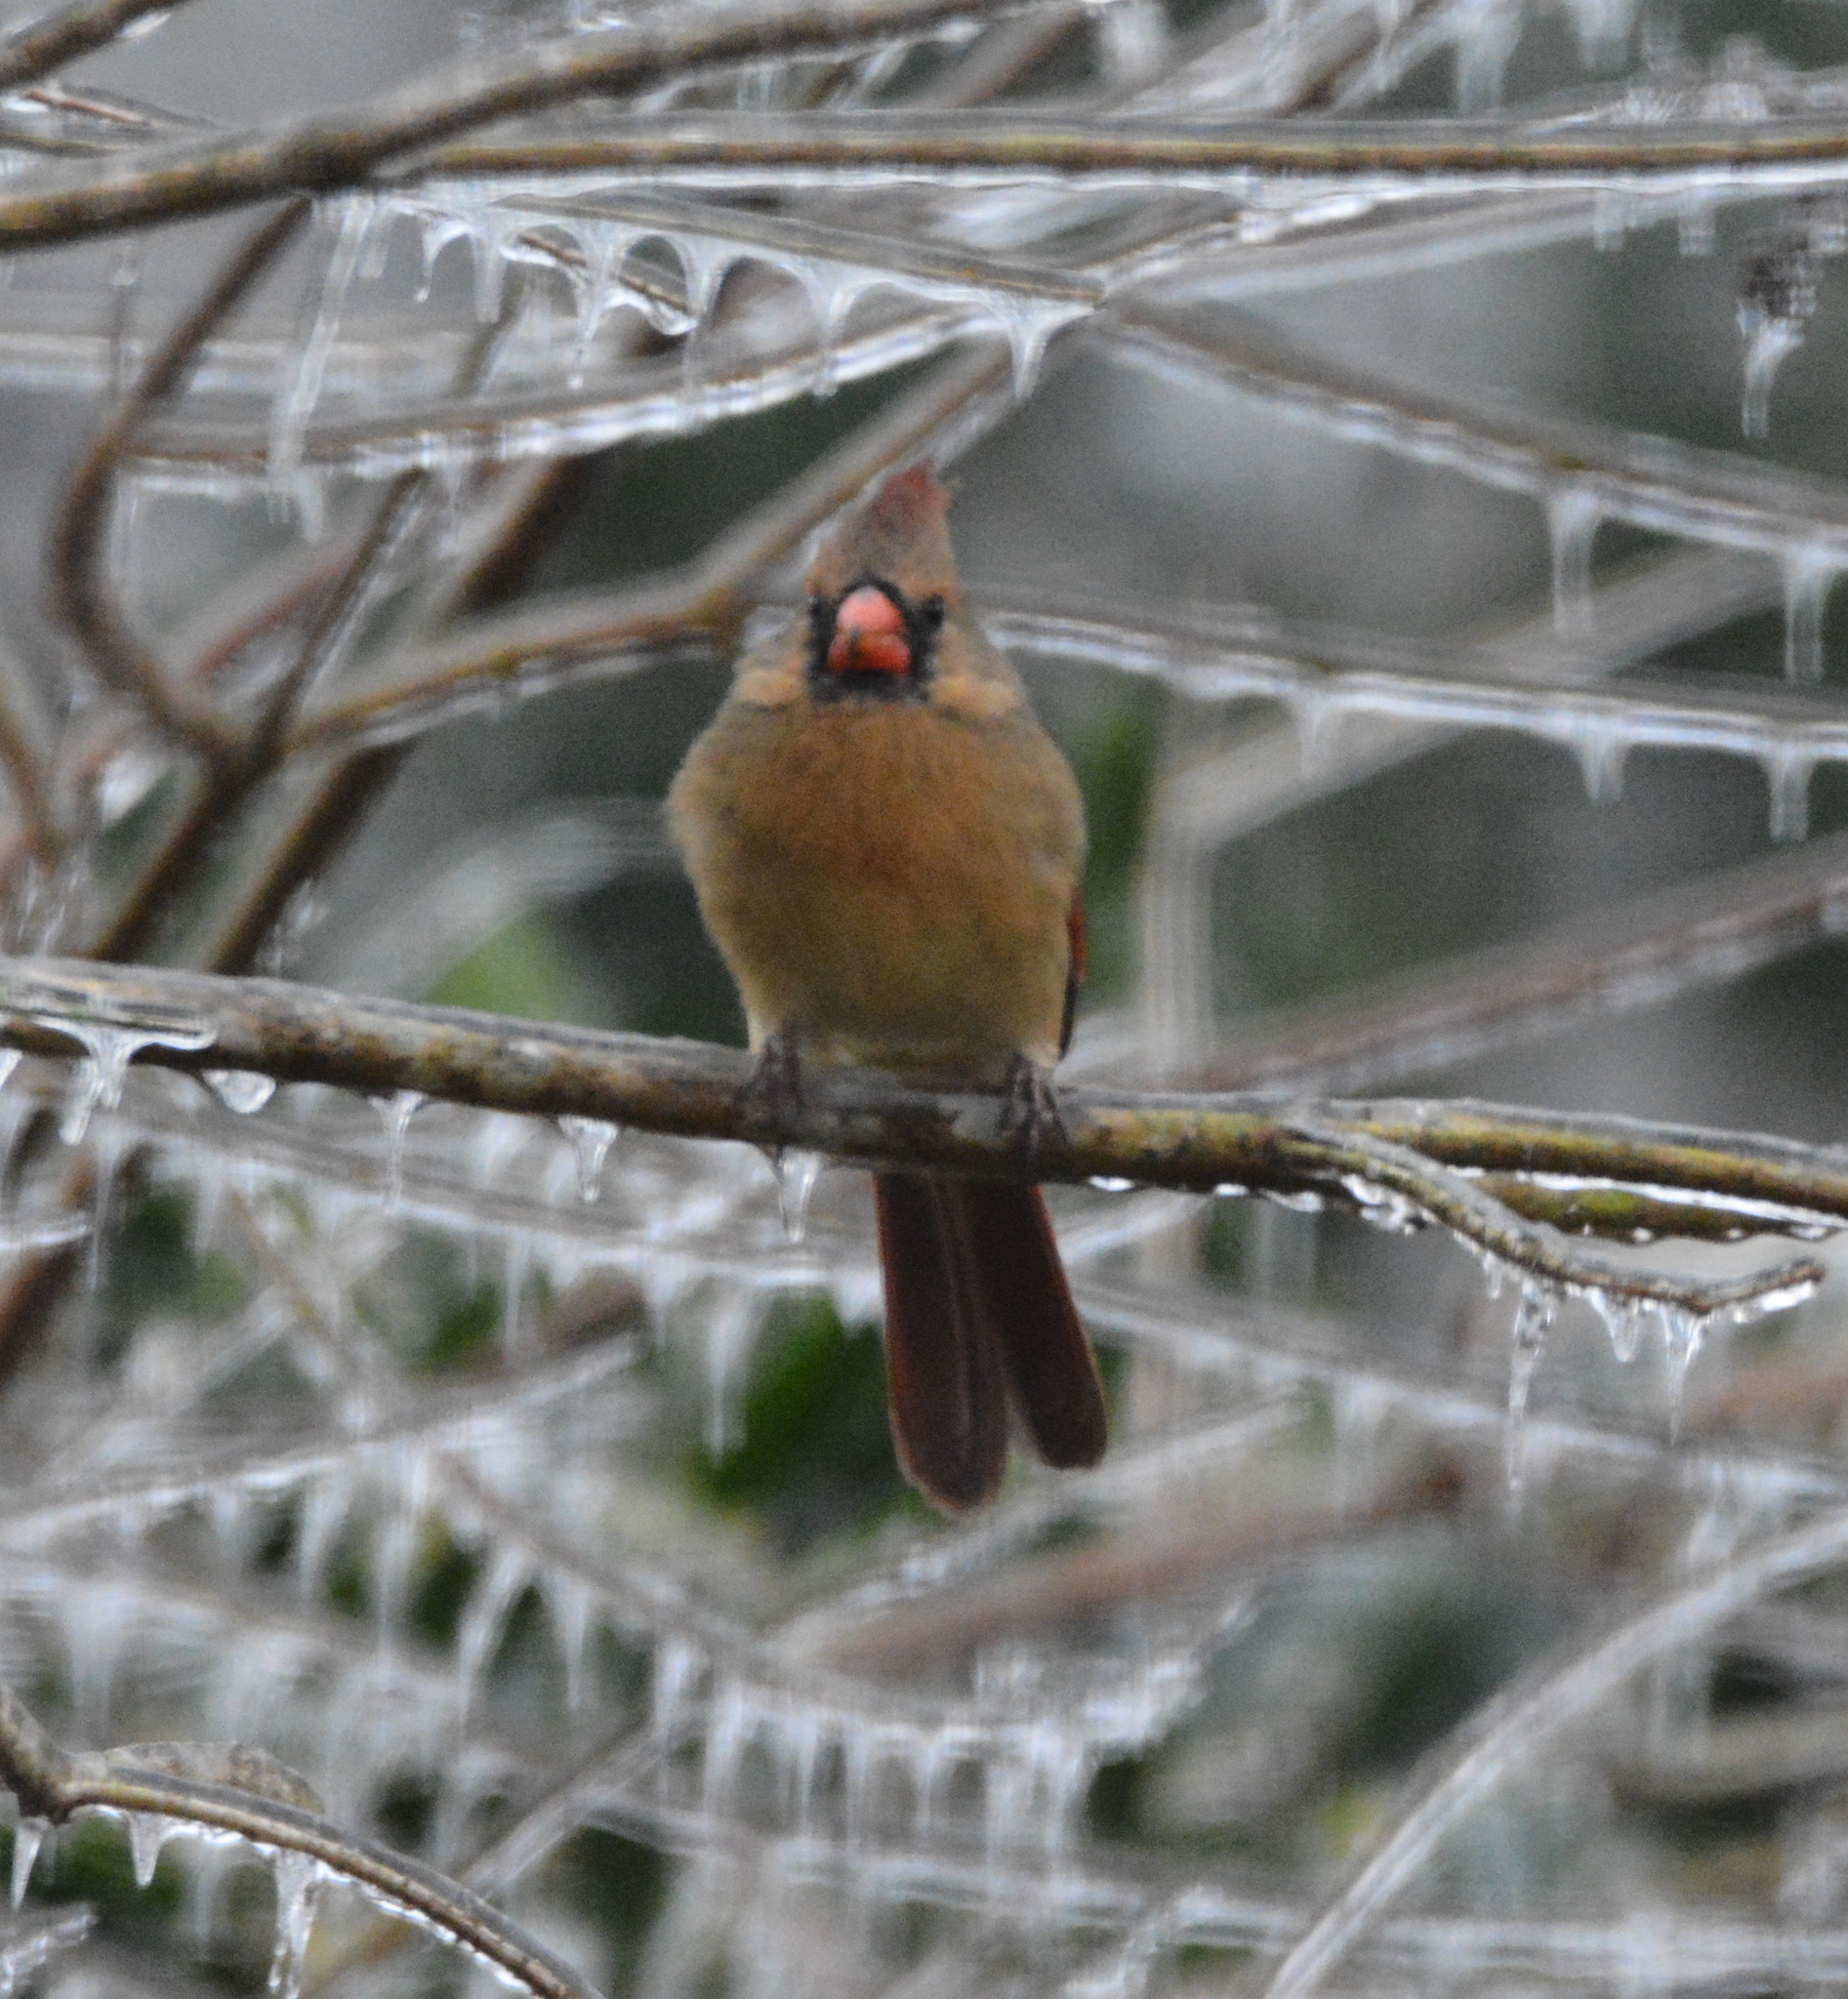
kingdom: Animalia
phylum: Chordata
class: Aves
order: Passeriformes
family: Cardinalidae
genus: Cardinalis
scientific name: Cardinalis cardinalis
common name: Northern cardinal
